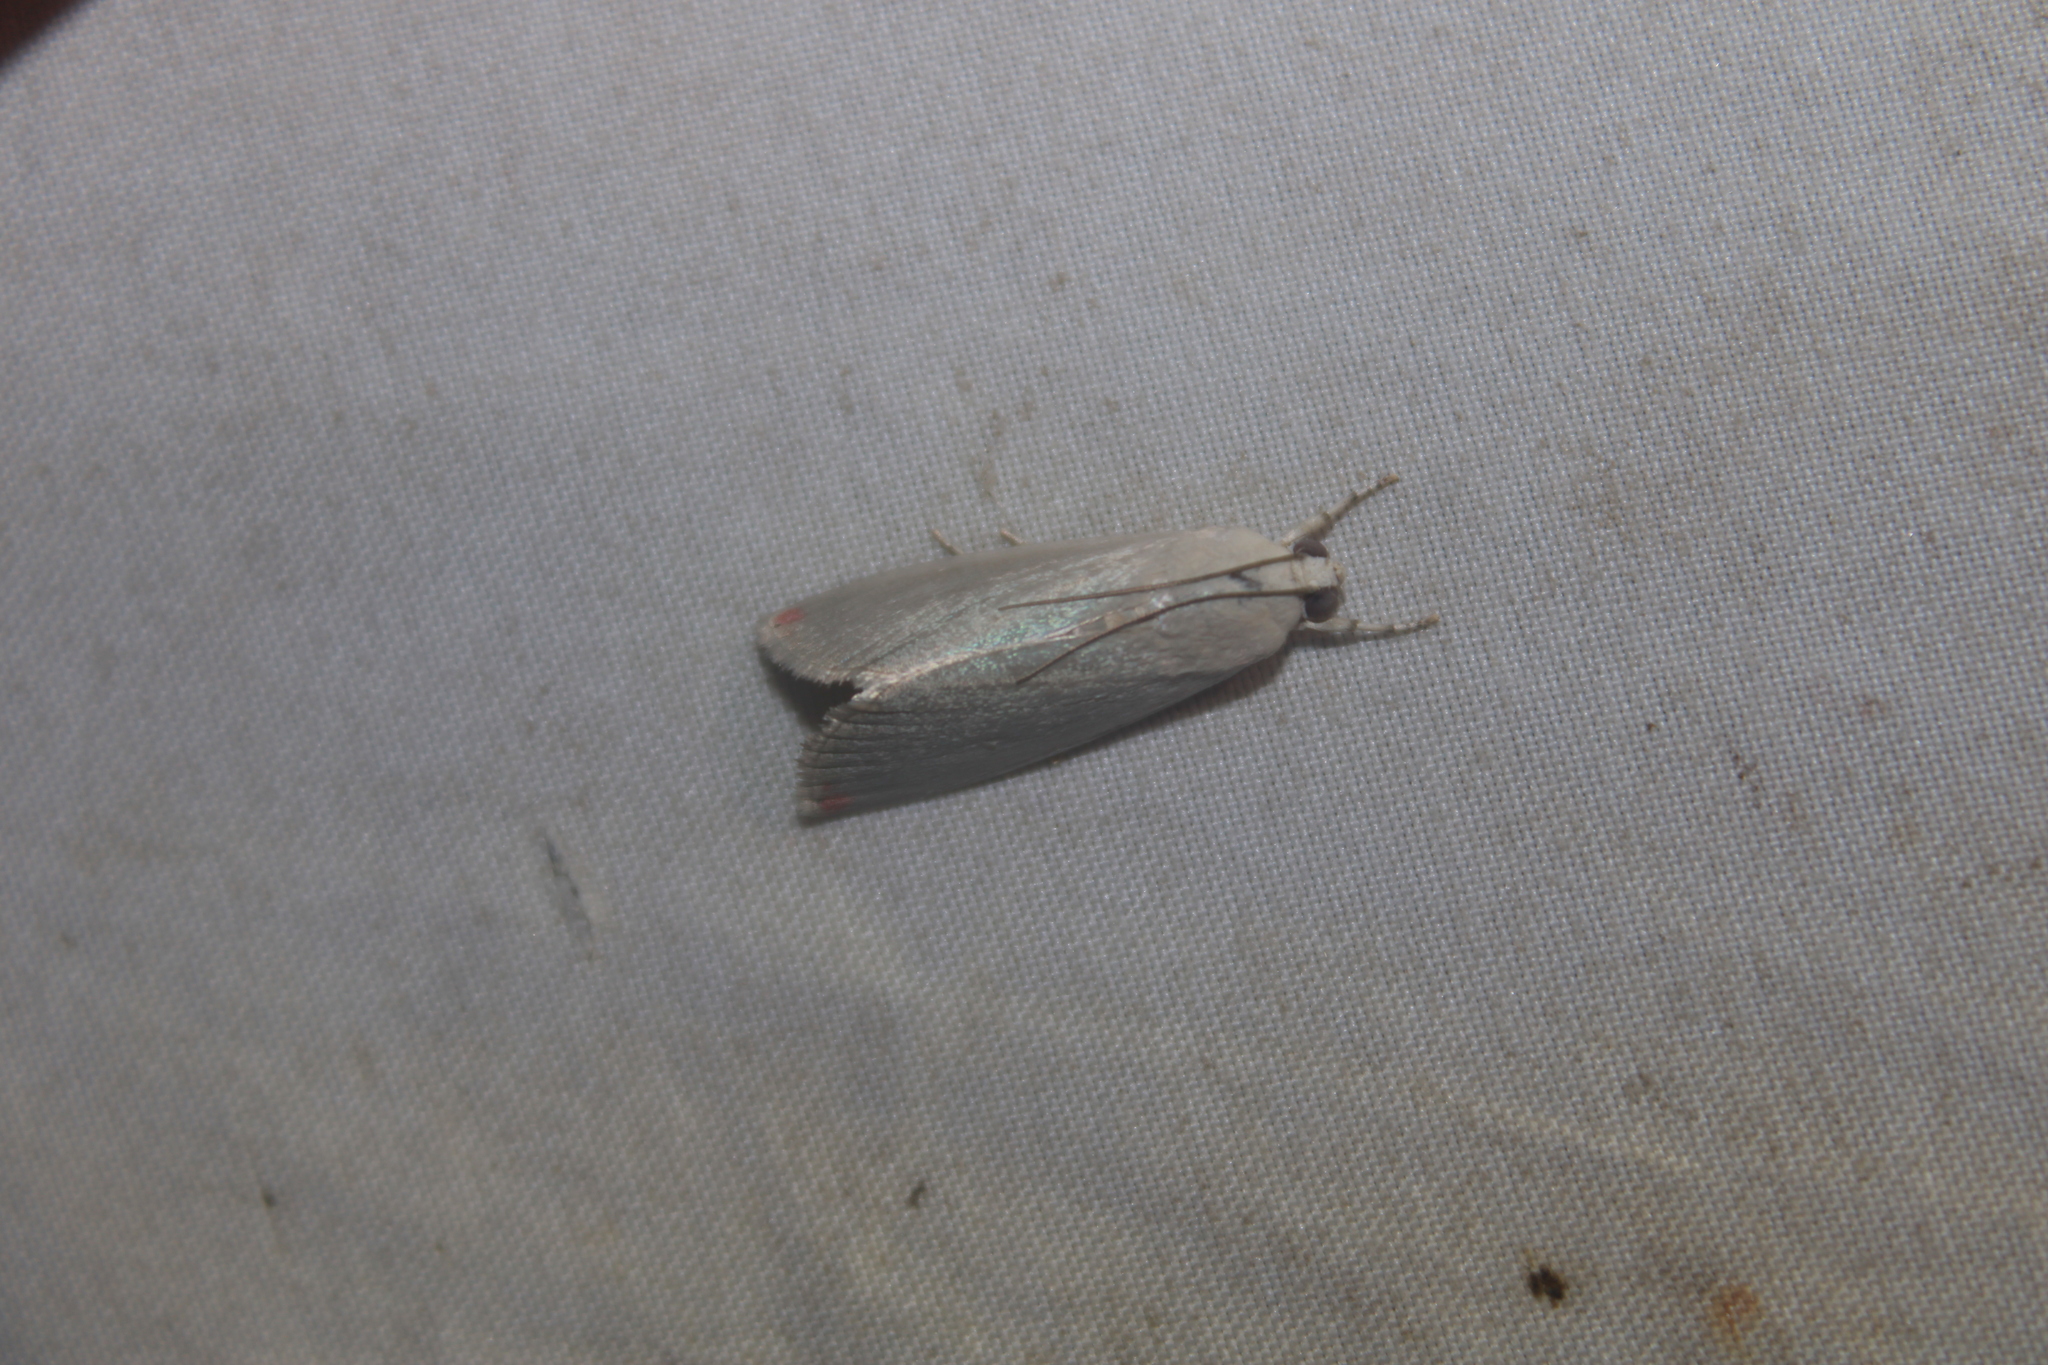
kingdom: Animalia
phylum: Arthropoda
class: Insecta
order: Lepidoptera
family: Crambidae
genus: Dichogama
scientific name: Dichogama amabilis
